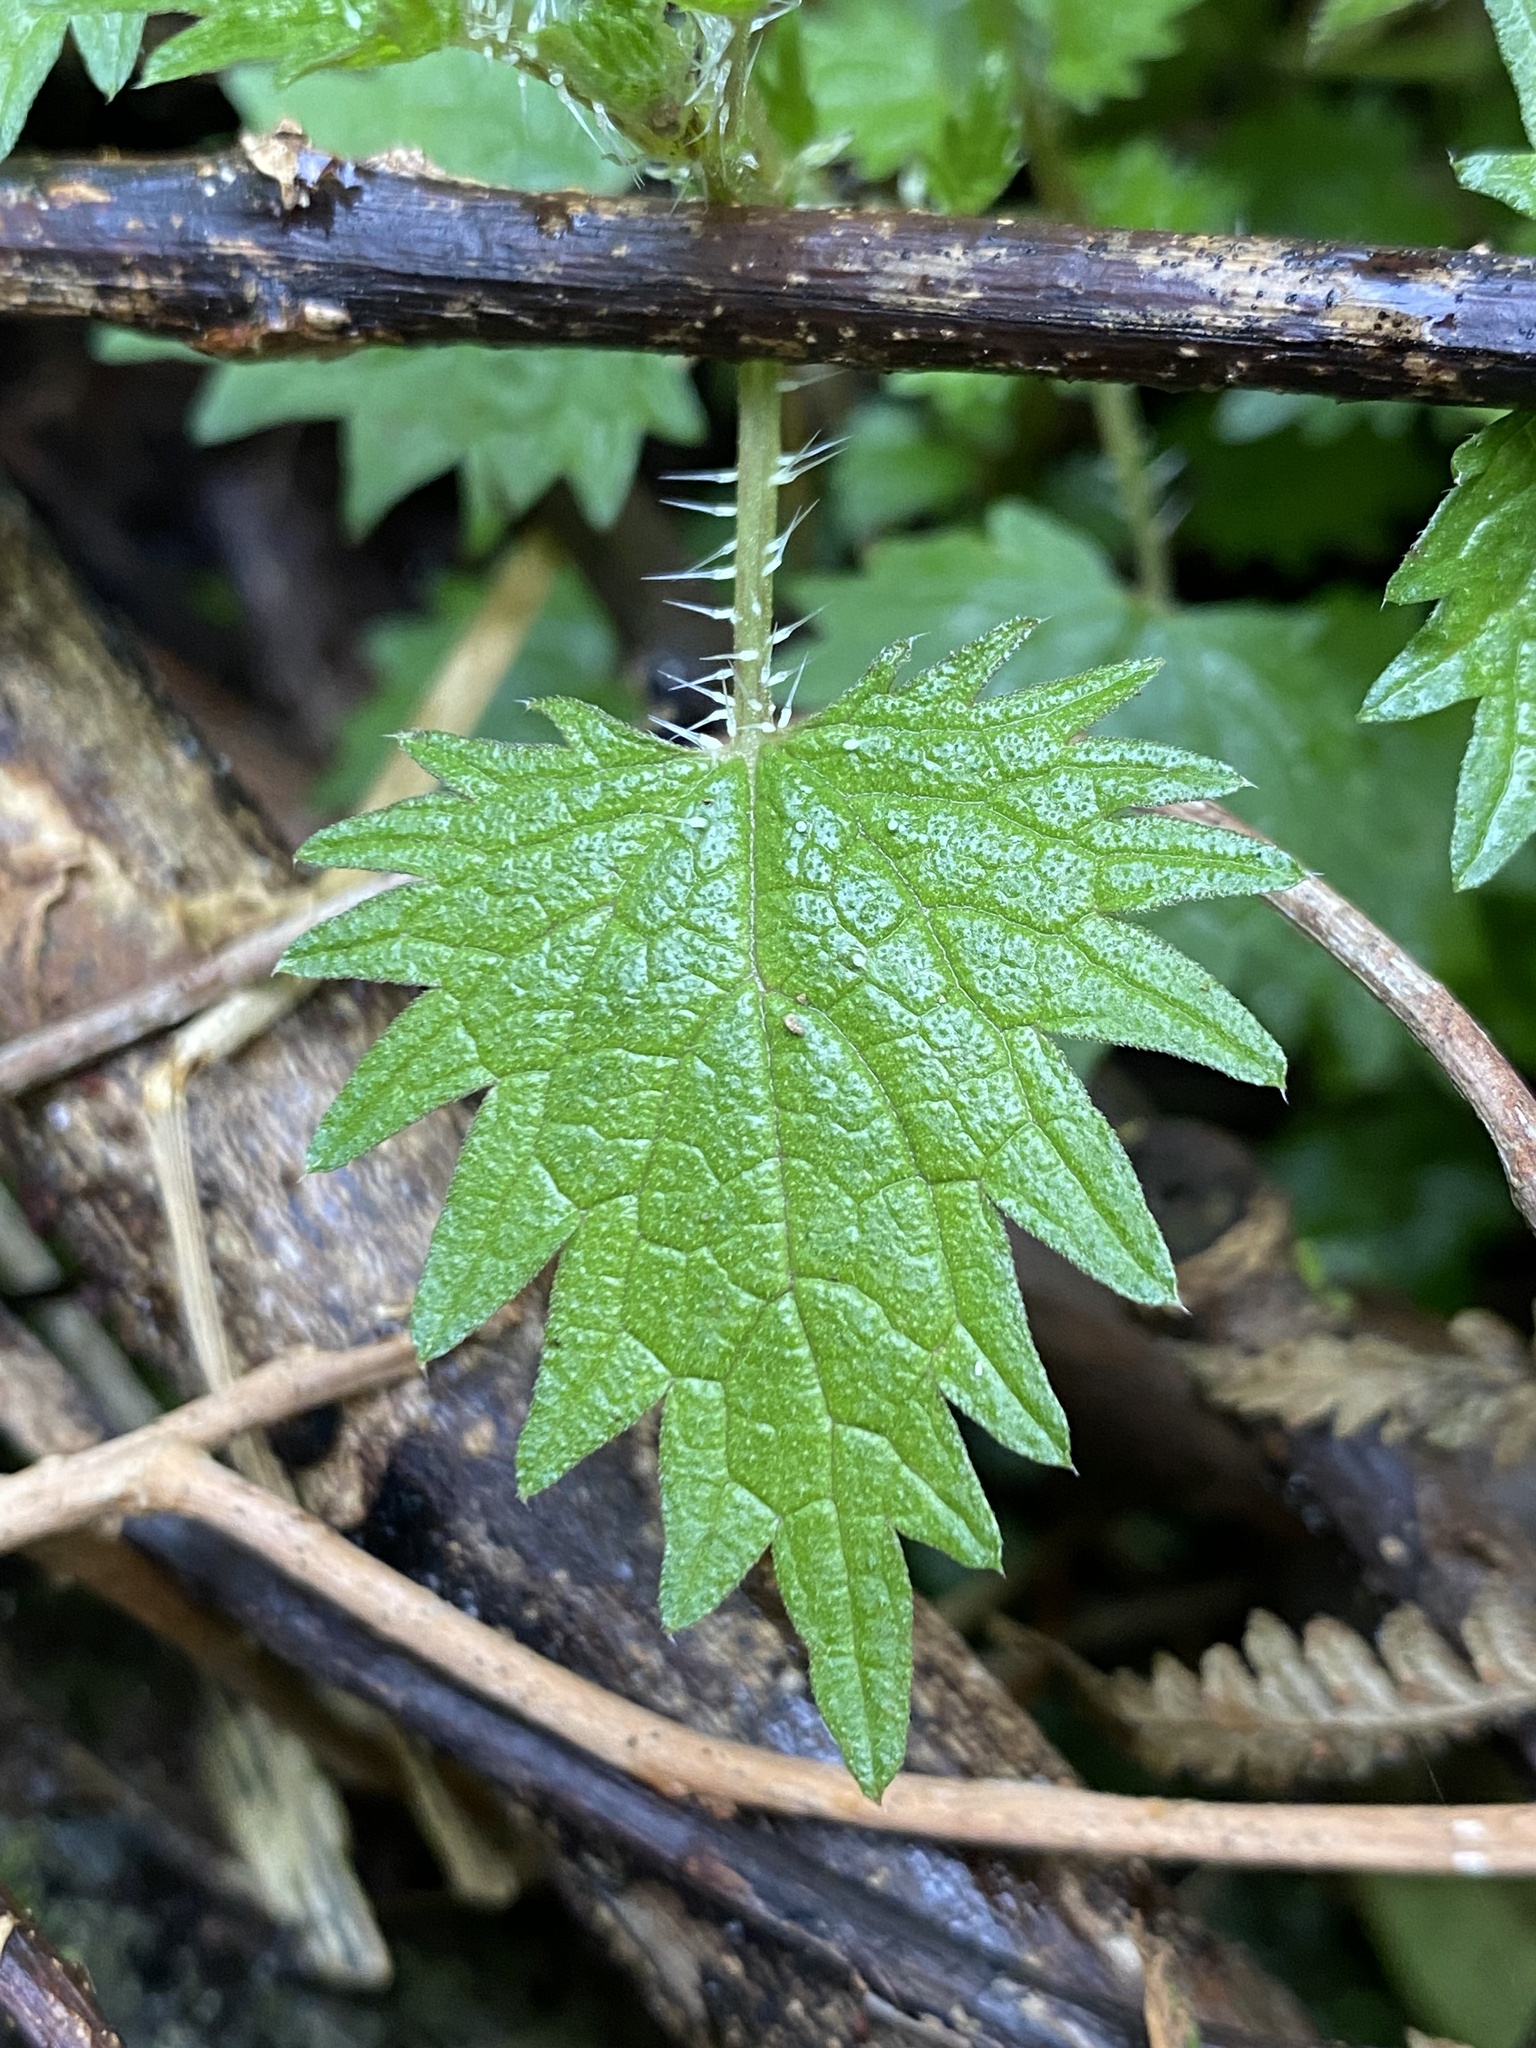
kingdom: Plantae
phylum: Tracheophyta
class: Magnoliopsida
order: Rosales
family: Urticaceae
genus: Urtica
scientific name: Urtica sykesii
